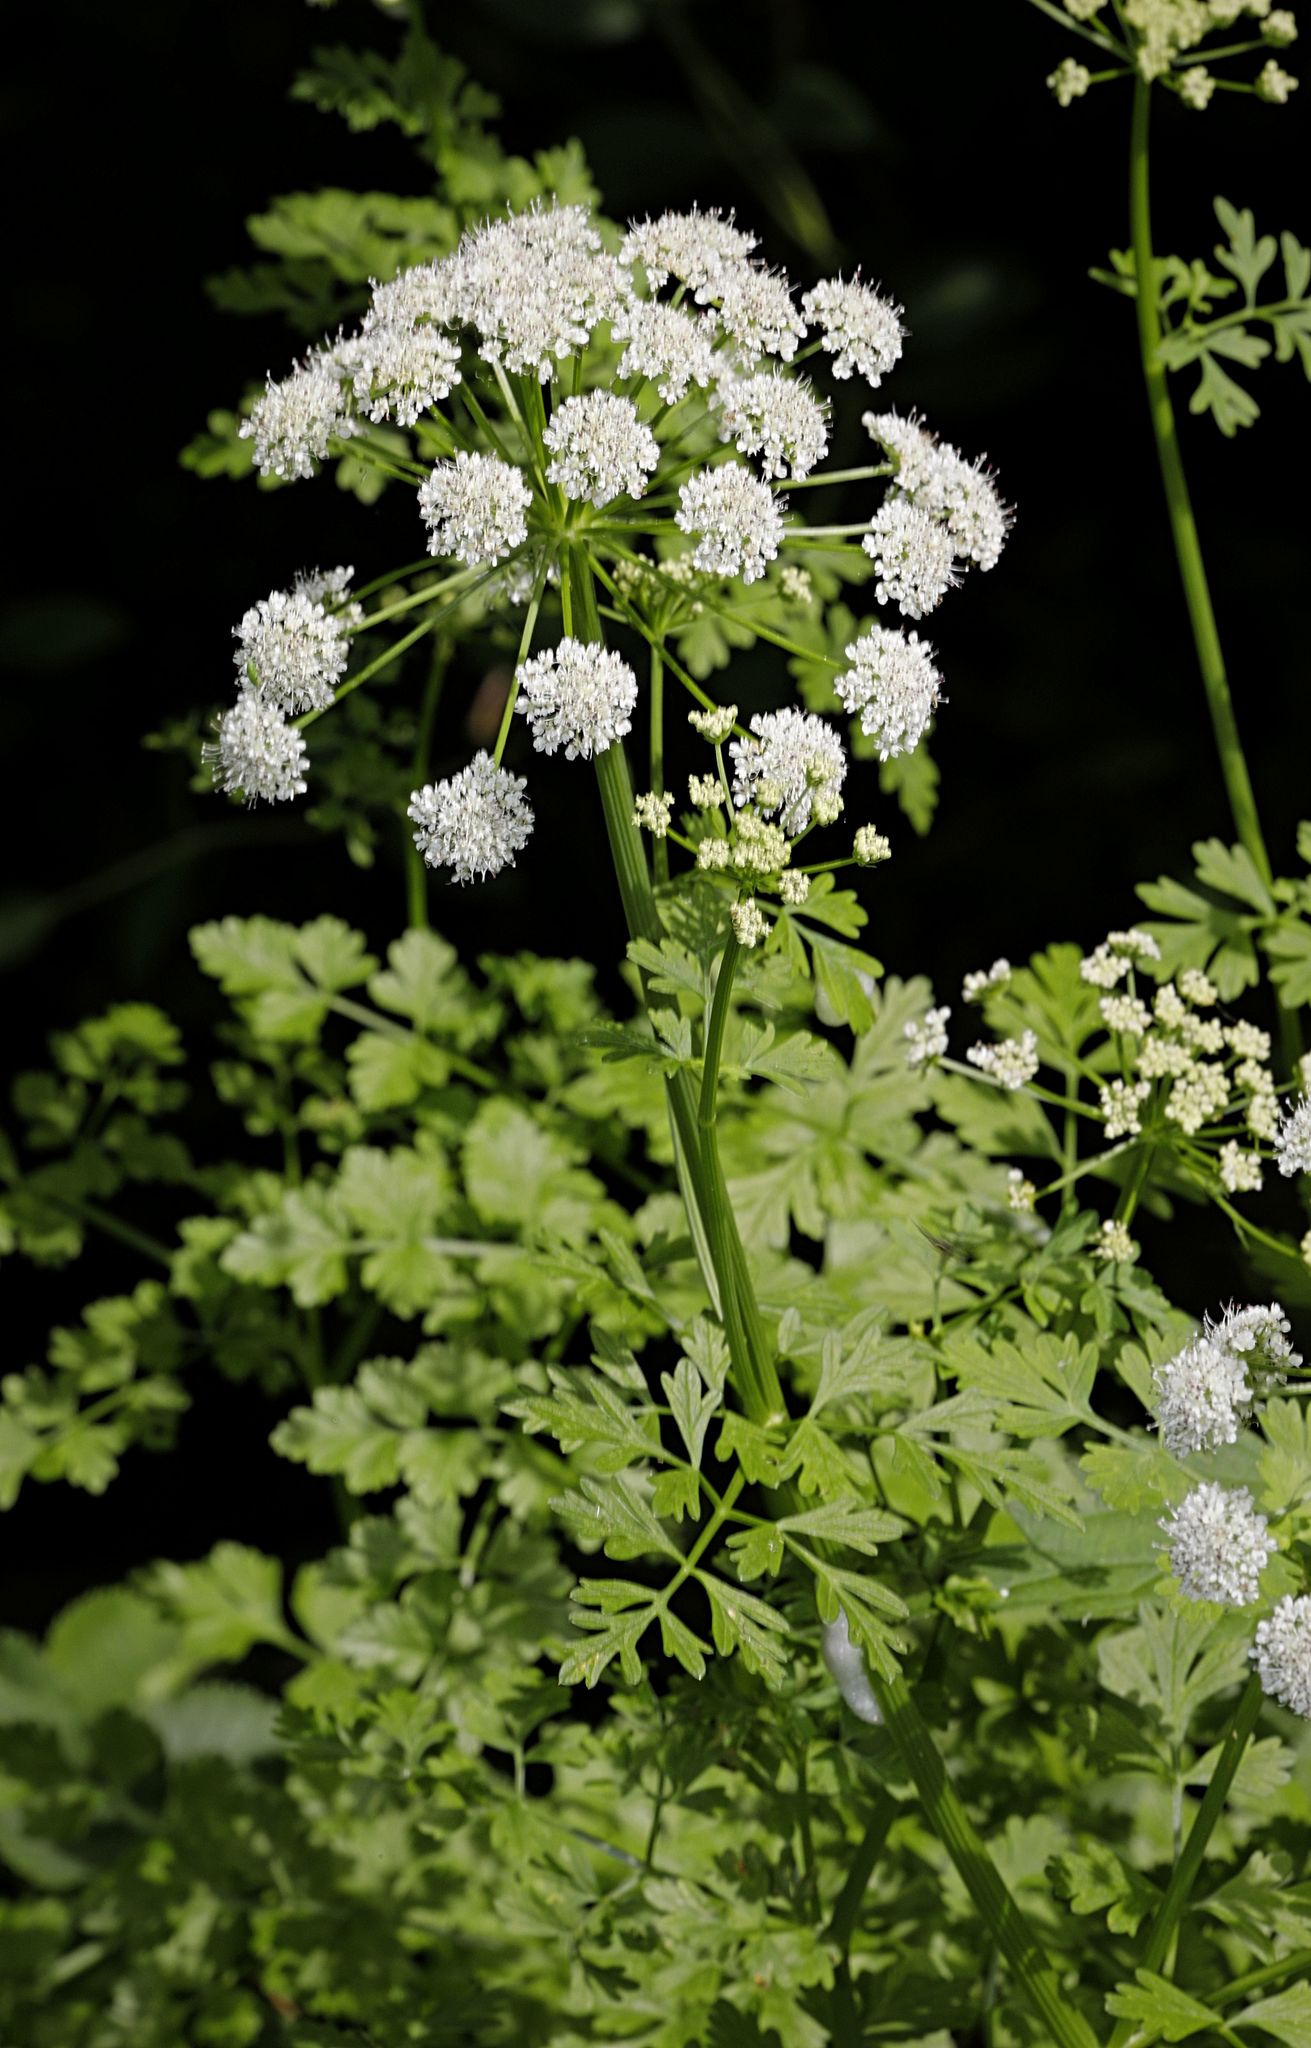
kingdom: Plantae
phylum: Tracheophyta
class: Magnoliopsida
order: Apiales
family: Apiaceae
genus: Oenanthe
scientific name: Oenanthe crocata
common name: Hemlock water-dropwort
